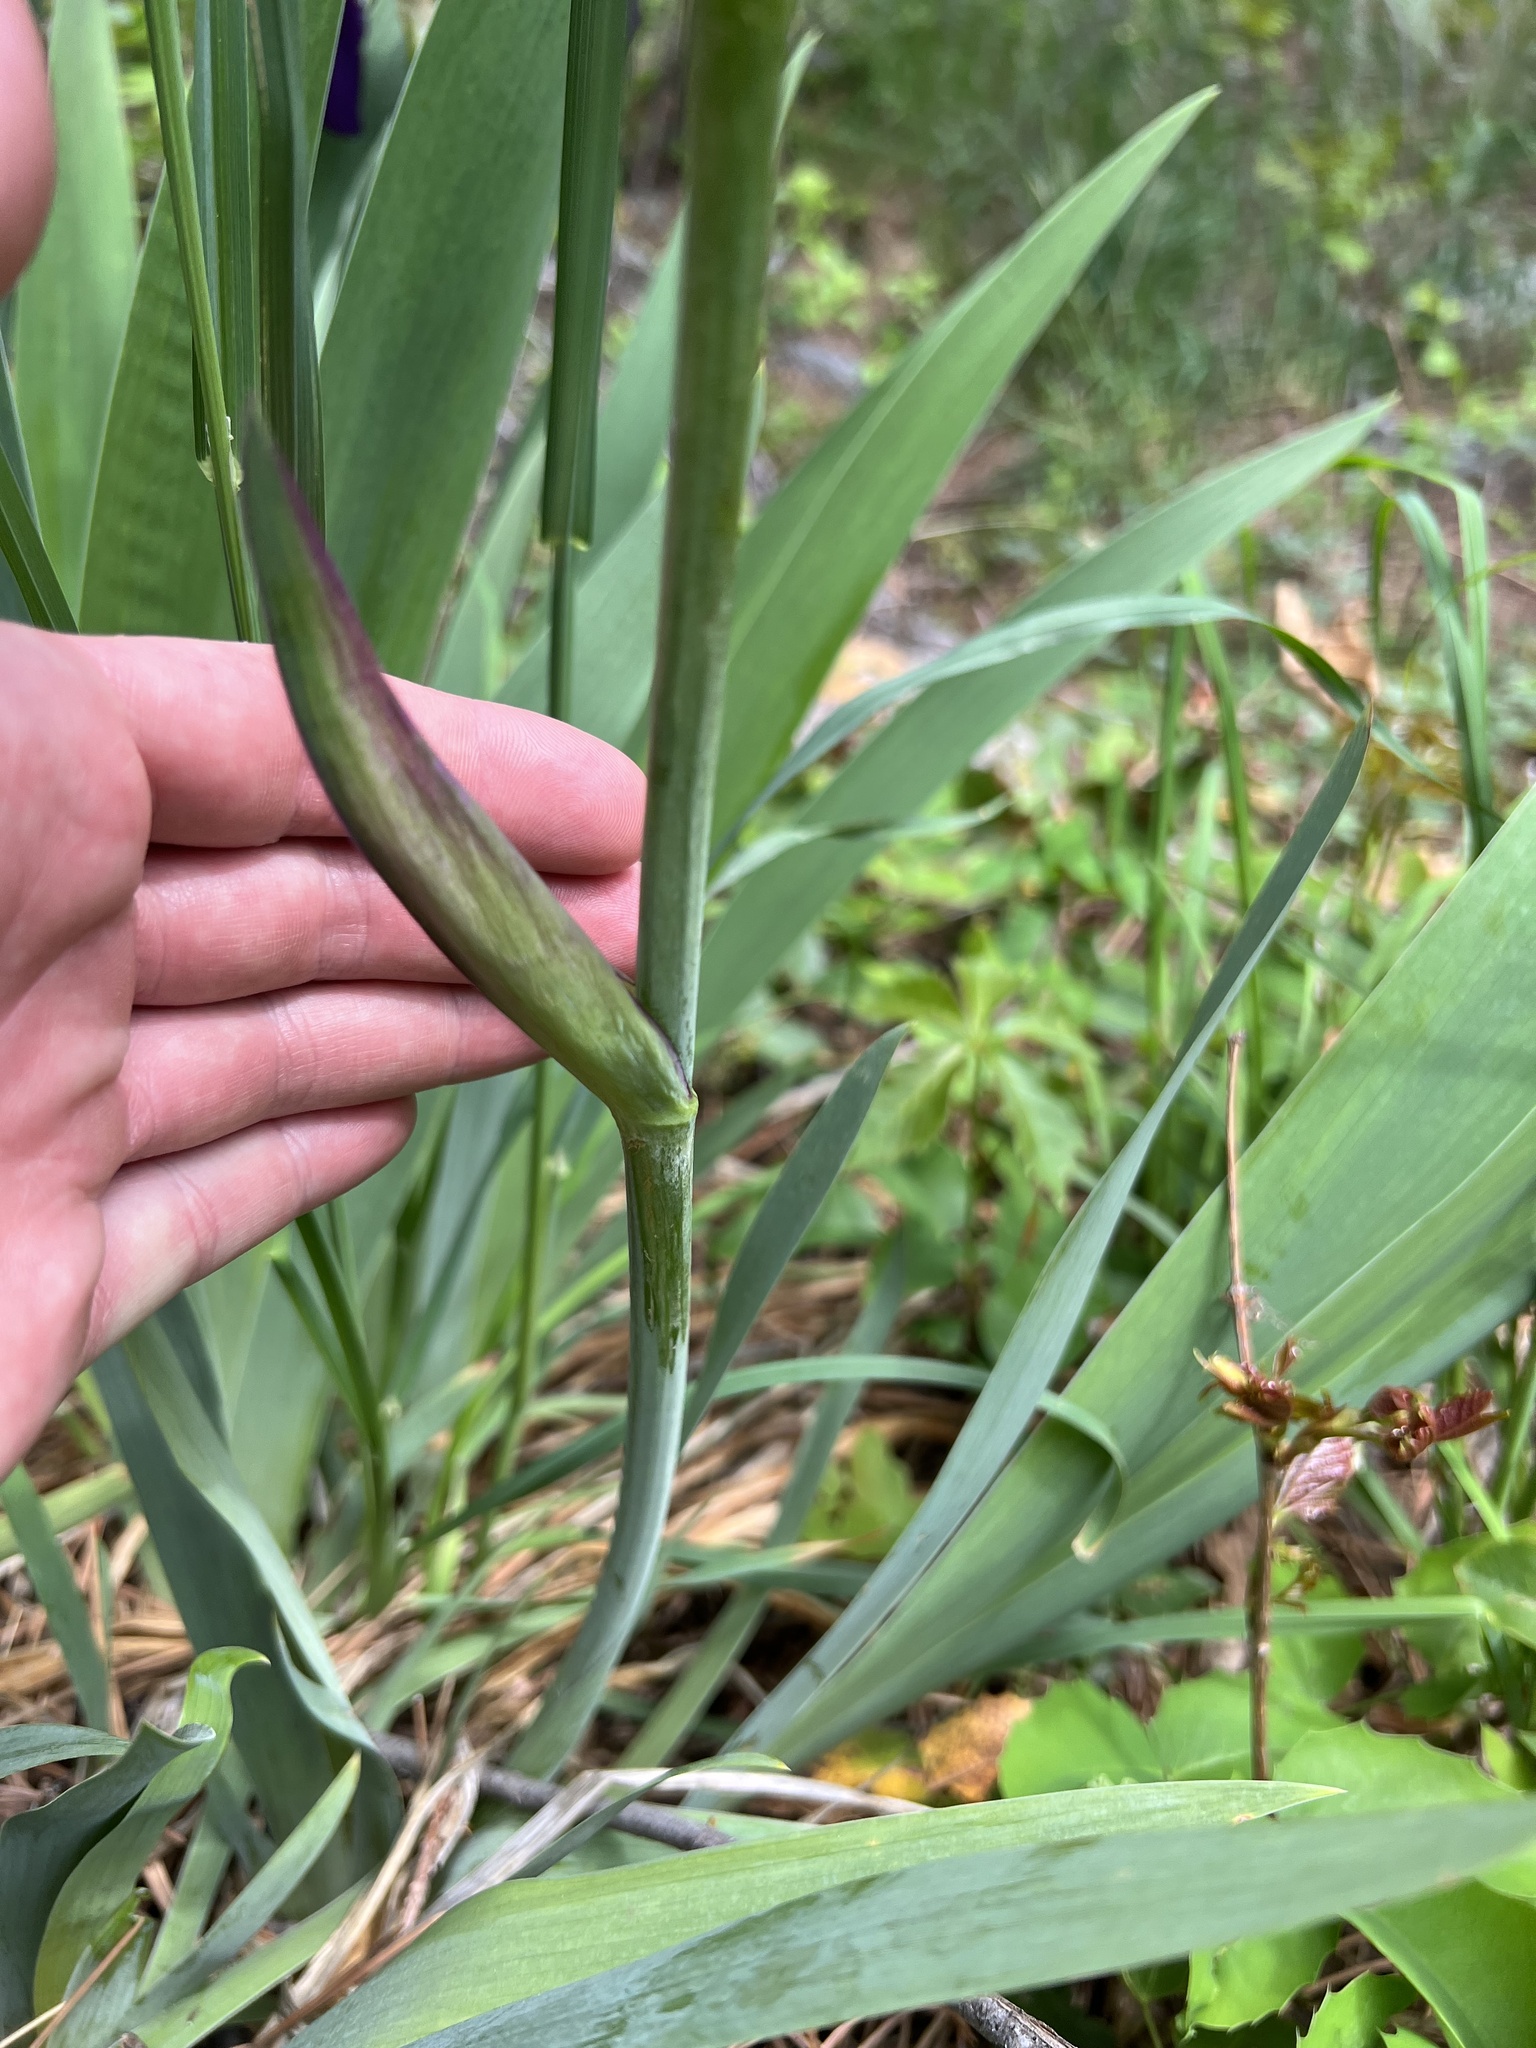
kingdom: Plantae
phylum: Tracheophyta
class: Liliopsida
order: Asparagales
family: Iridaceae
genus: Iris
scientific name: Iris aphylla
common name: Stool iris
